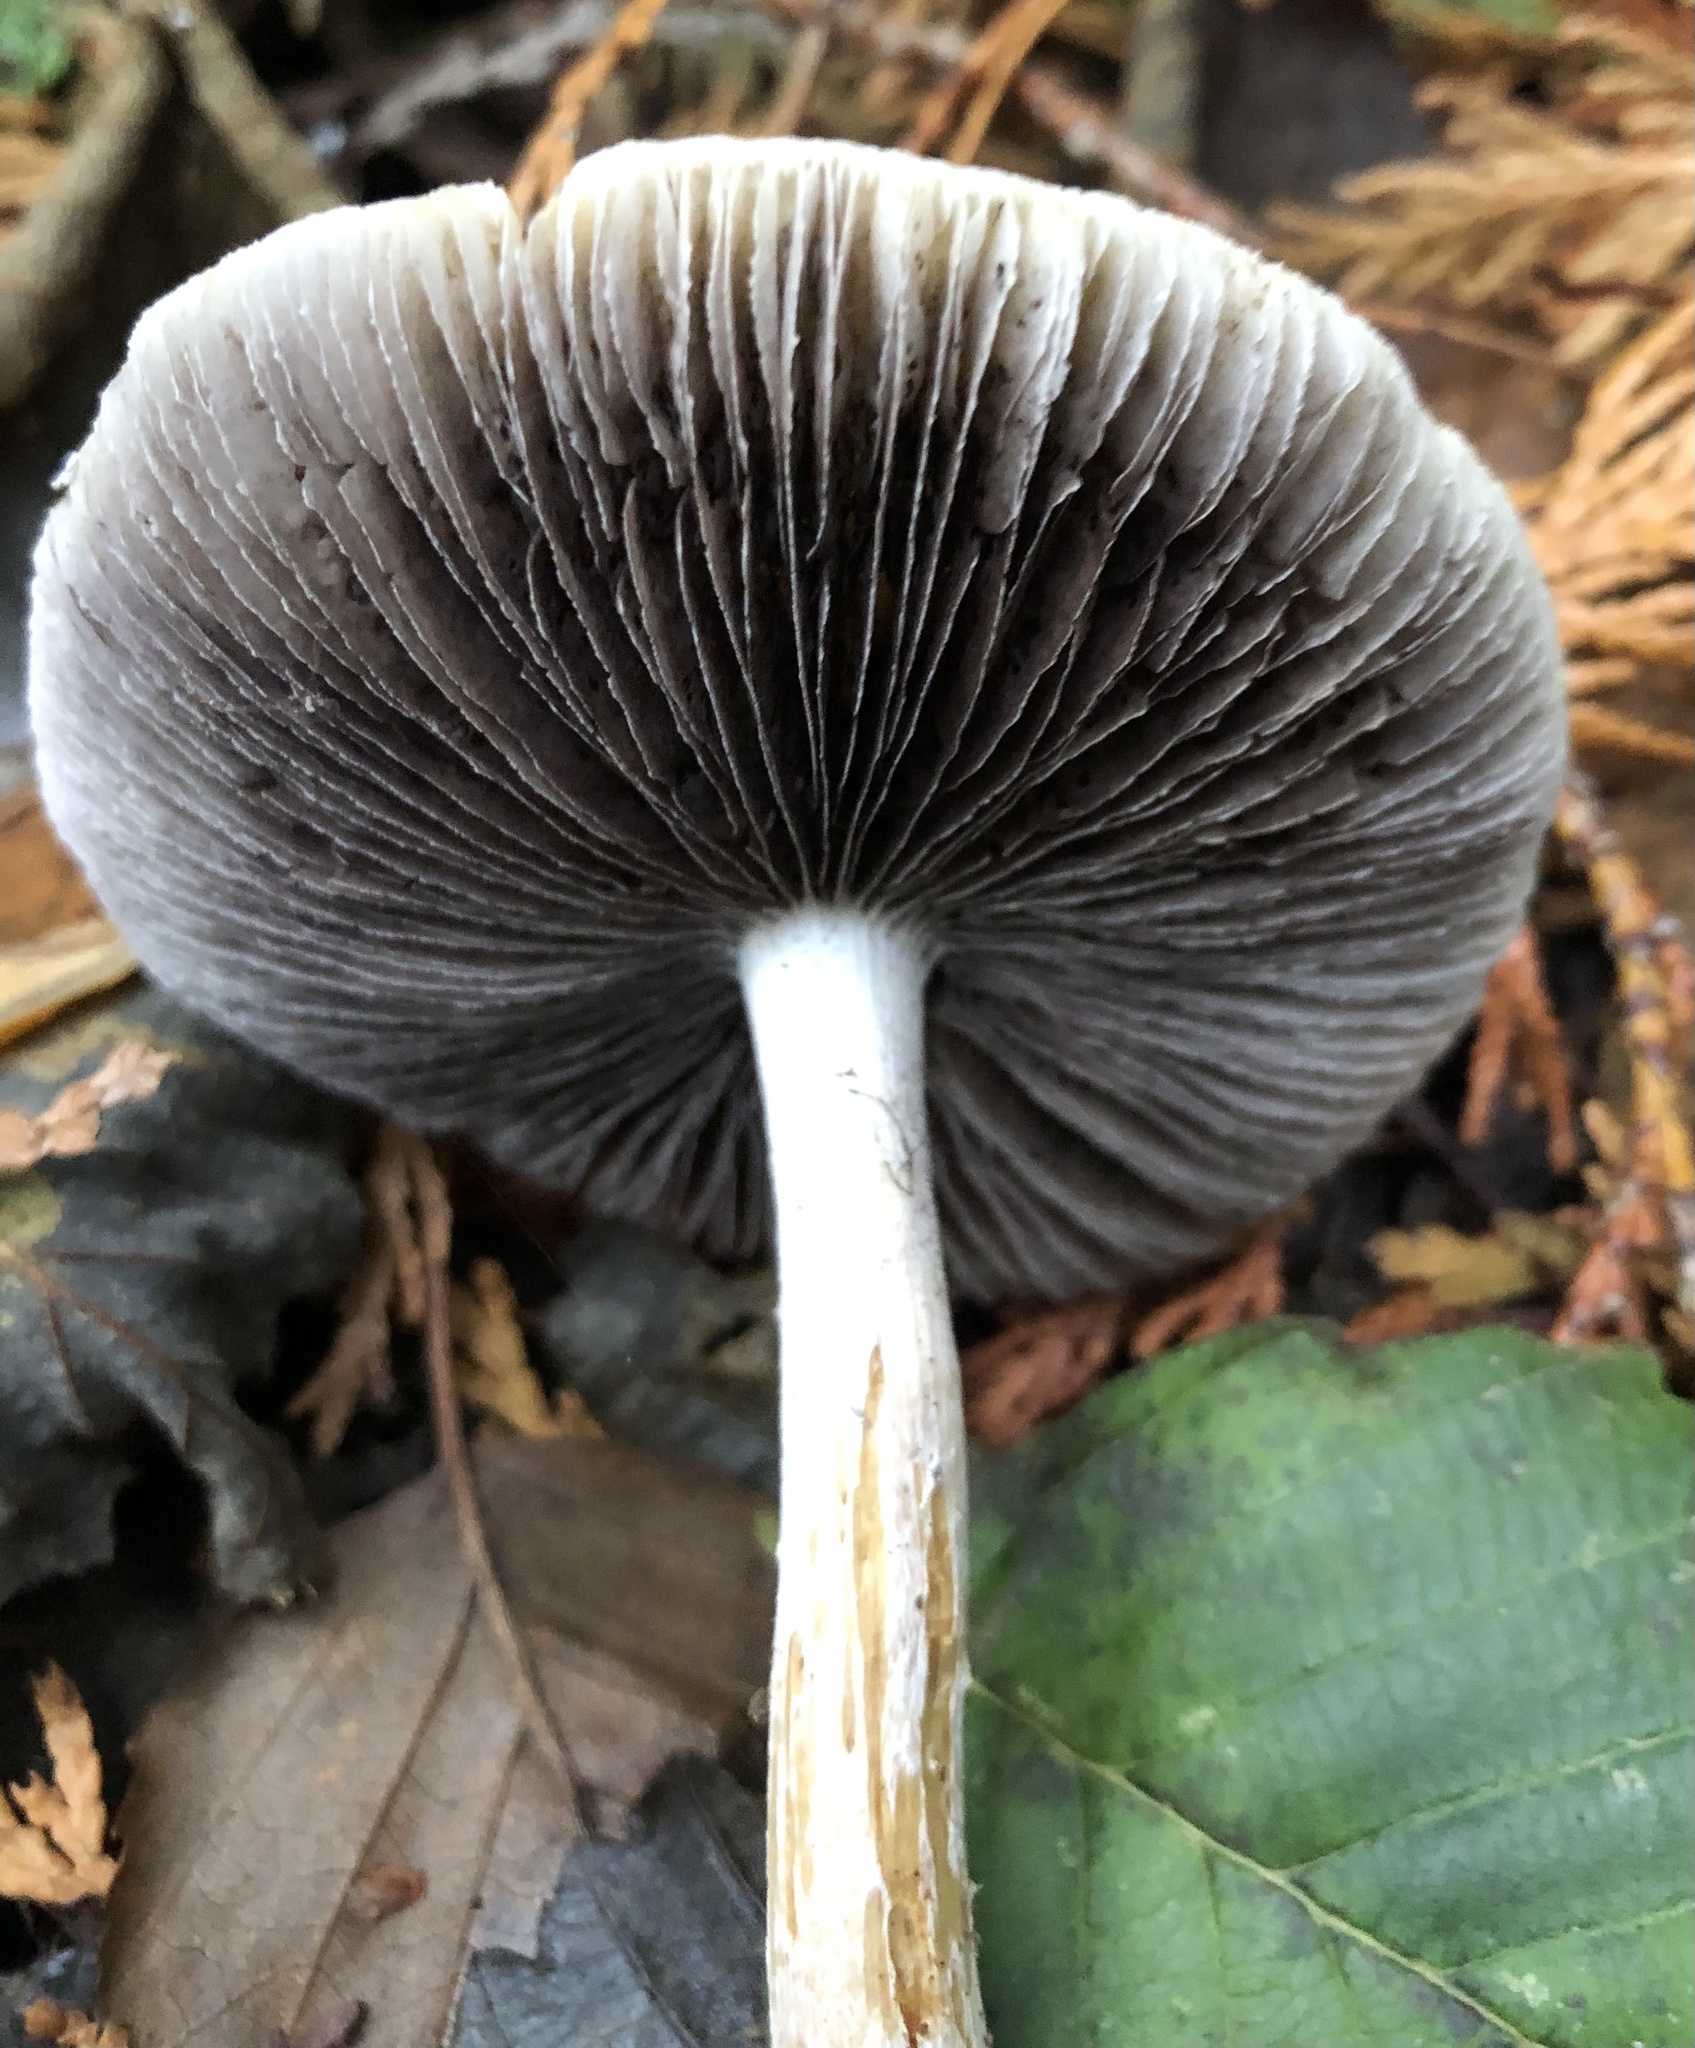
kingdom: Fungi
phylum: Basidiomycota
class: Agaricomycetes
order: Agaricales
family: Strophariaceae
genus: Stropharia
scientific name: Stropharia ambigua
